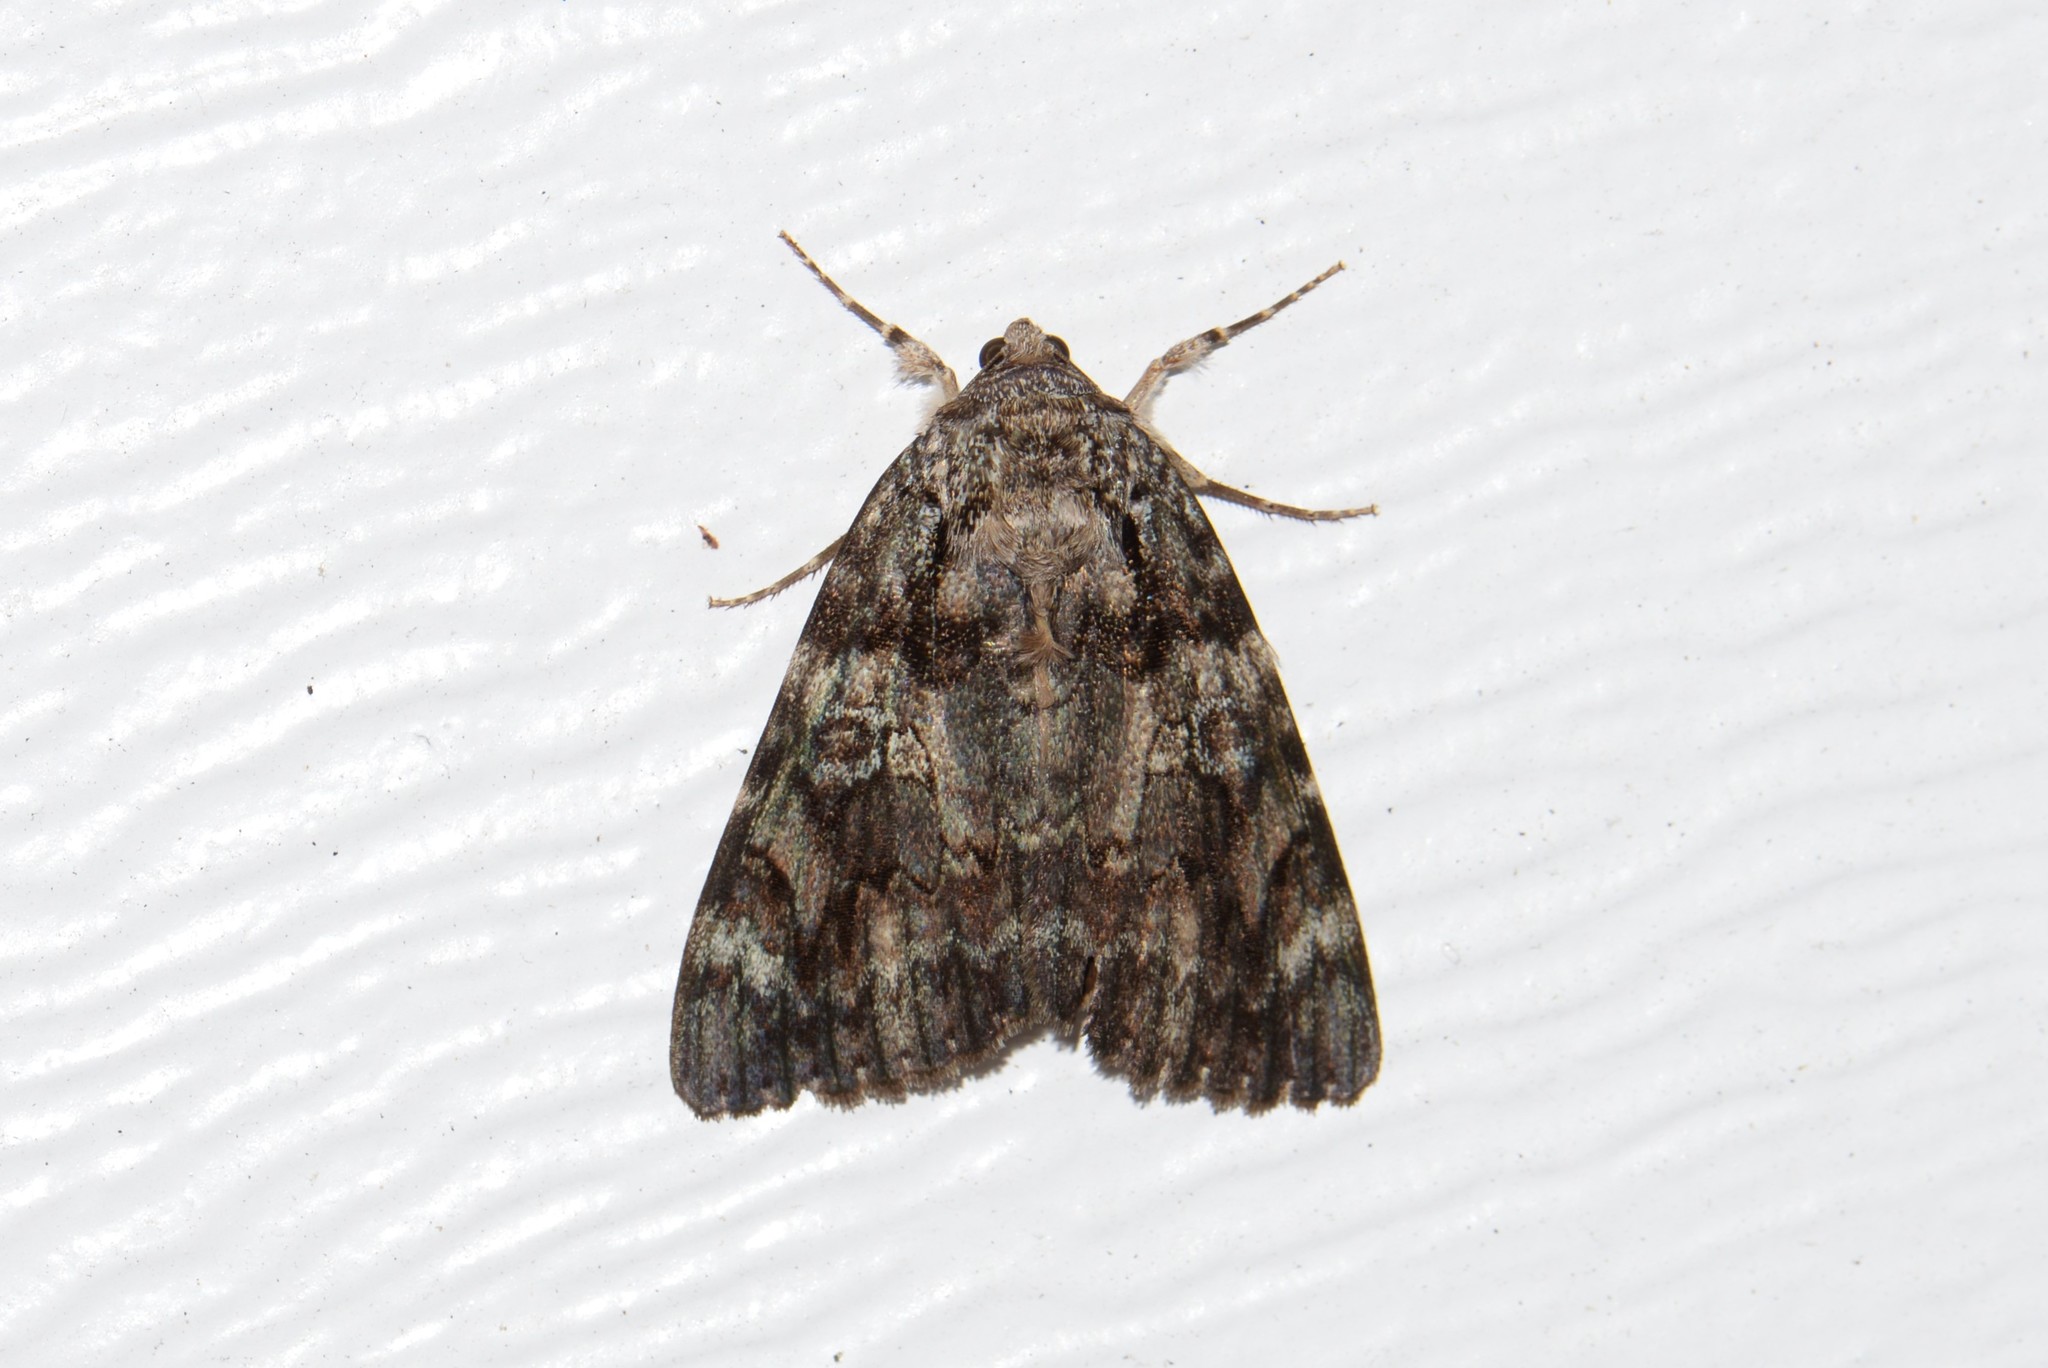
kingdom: Animalia
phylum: Arthropoda
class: Insecta
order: Lepidoptera
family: Erebidae
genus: Catocala
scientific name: Catocala ilia
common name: Ilia underwing
